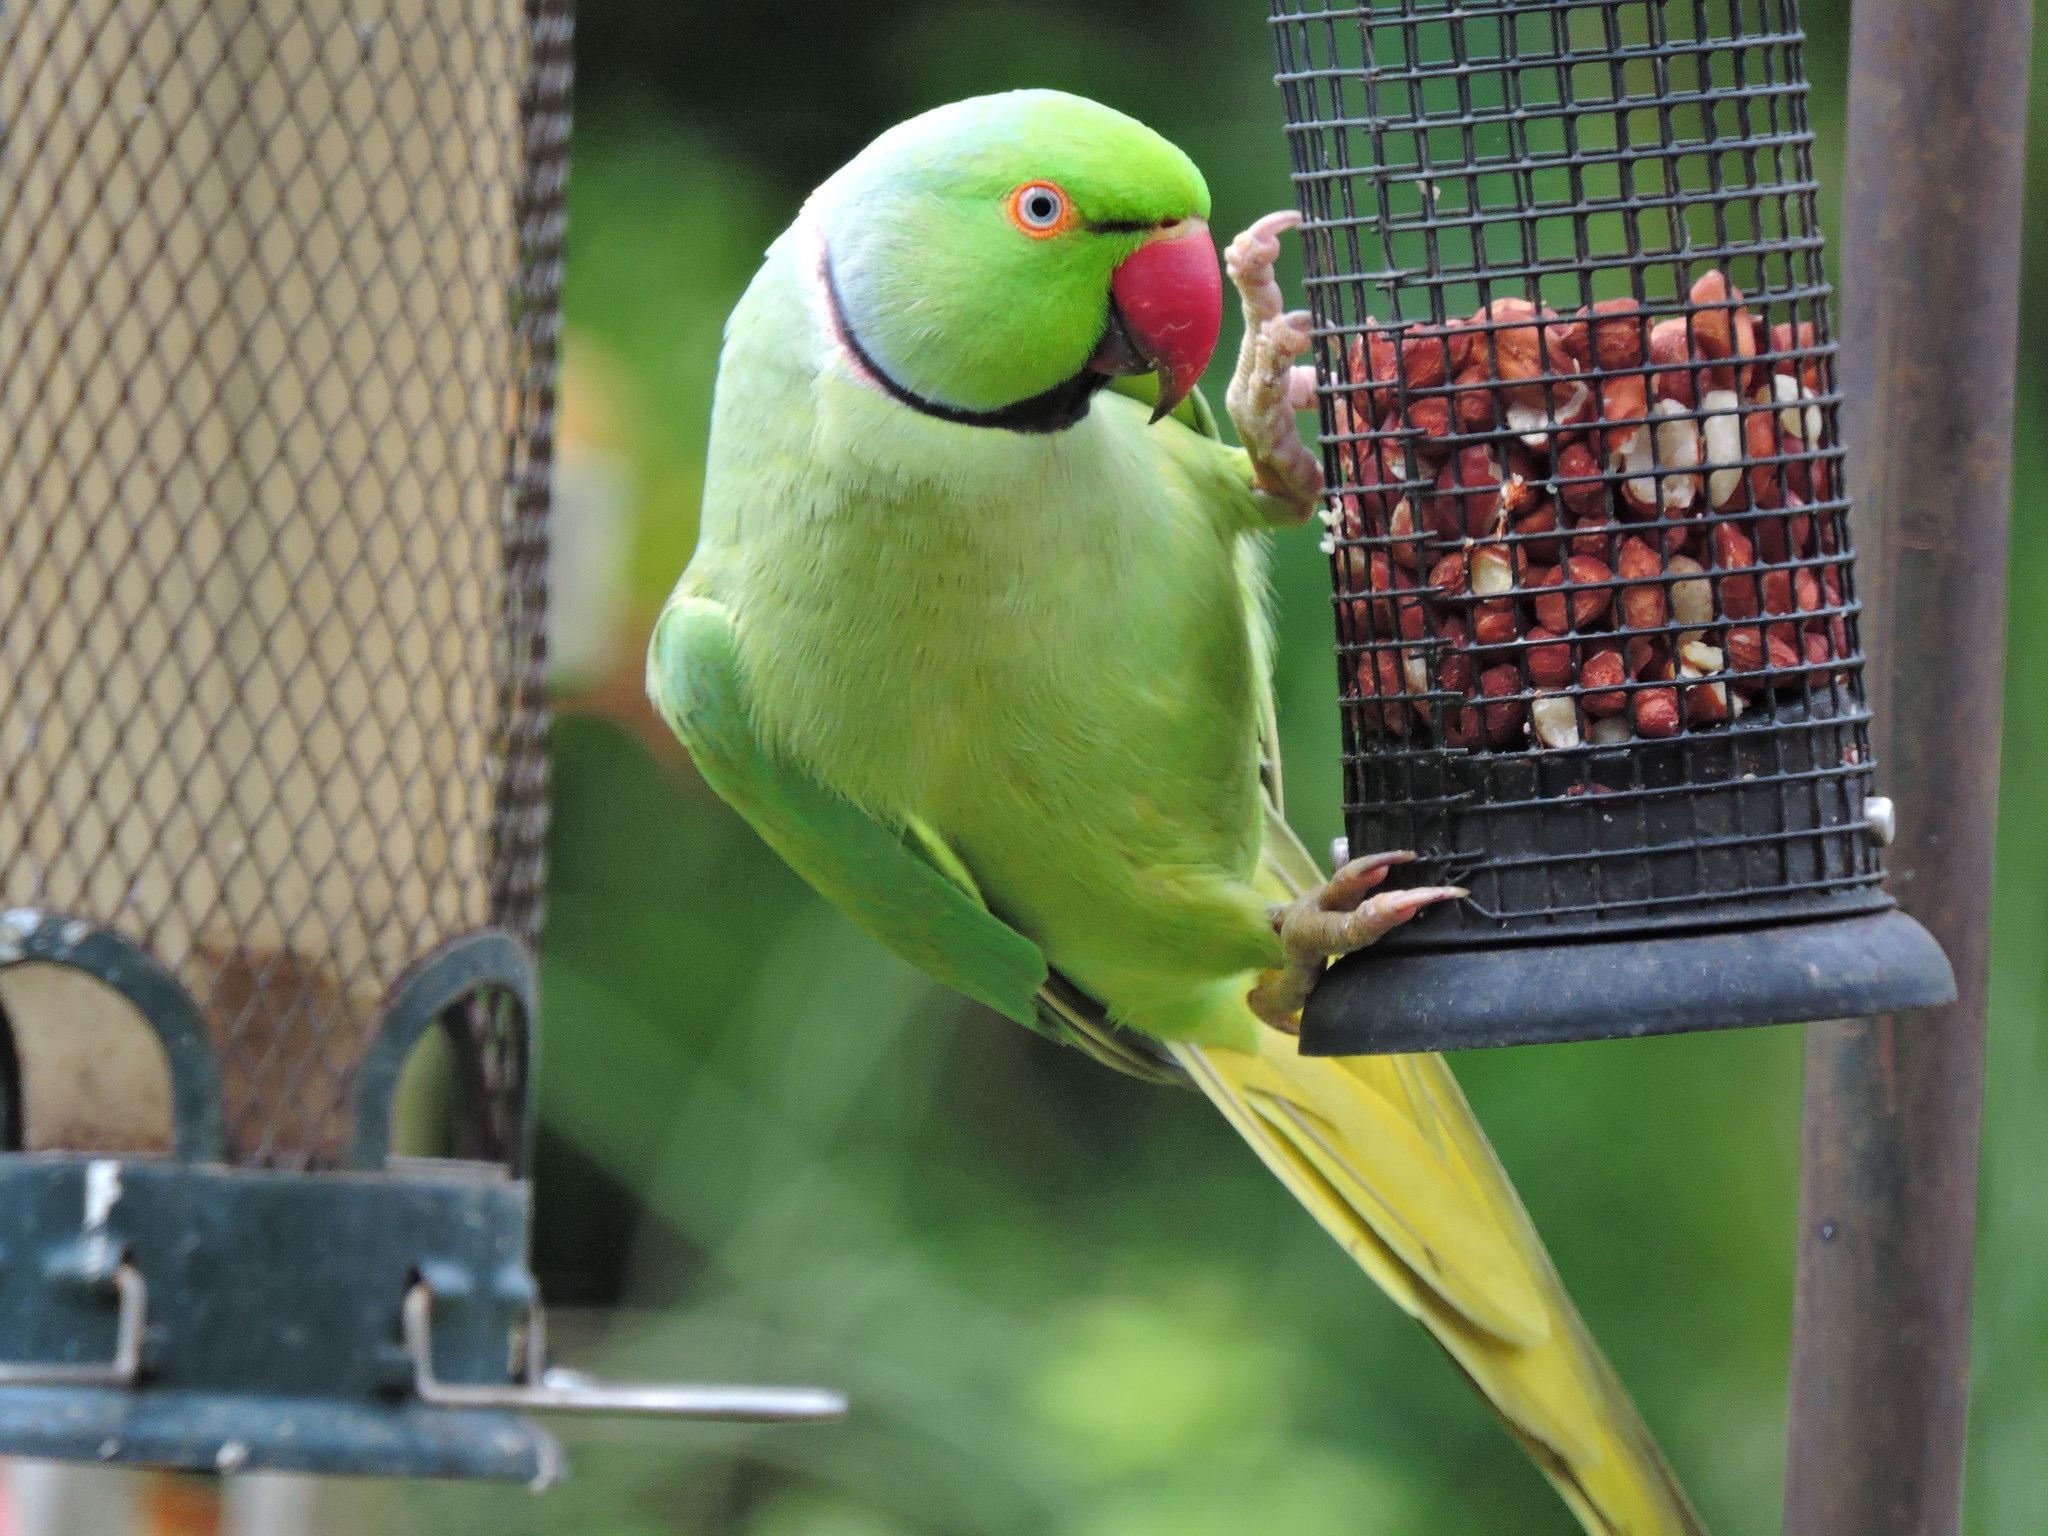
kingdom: Animalia
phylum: Chordata
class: Aves
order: Psittaciformes
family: Psittacidae
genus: Psittacula
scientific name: Psittacula krameri
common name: Rose-ringed parakeet
